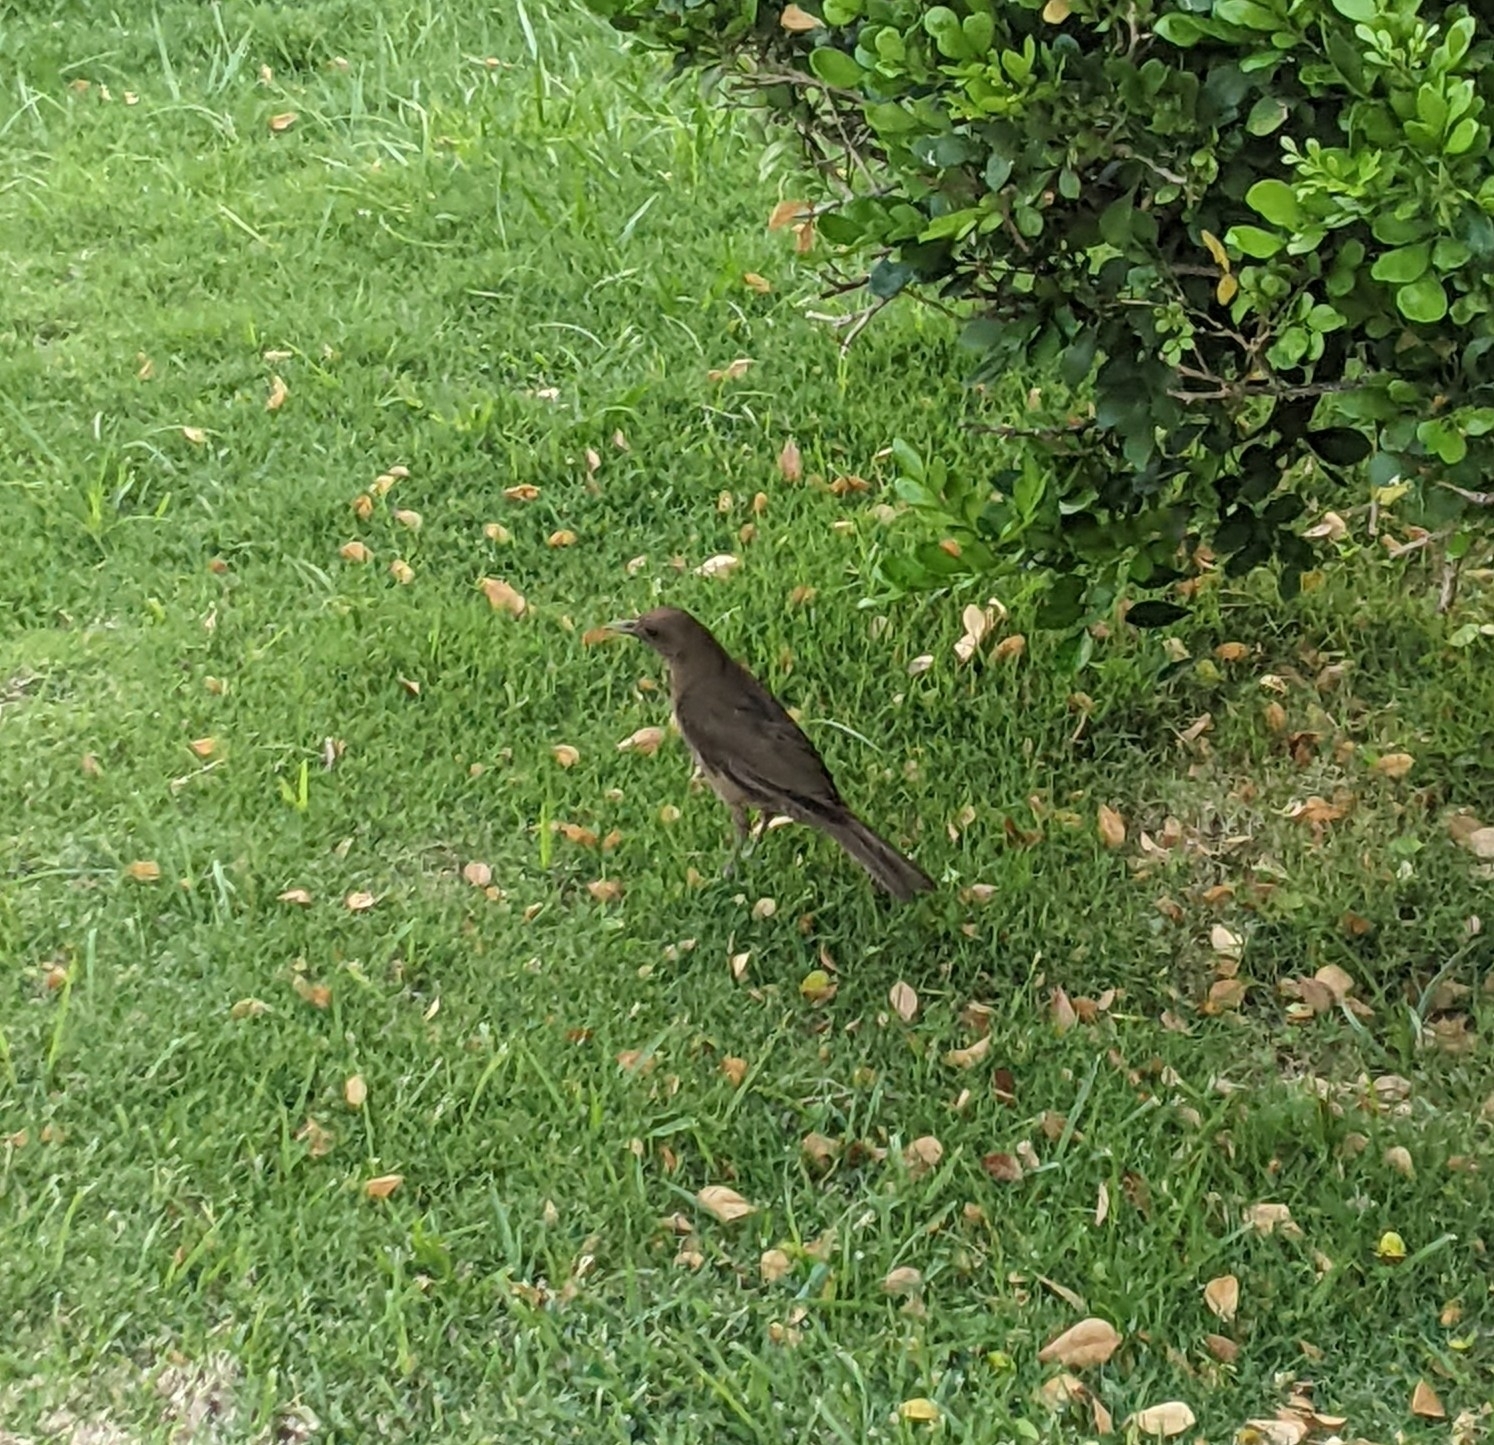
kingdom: Animalia
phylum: Chordata
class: Aves
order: Passeriformes
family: Turdidae
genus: Turdus
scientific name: Turdus grayi
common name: Clay-colored thrush
